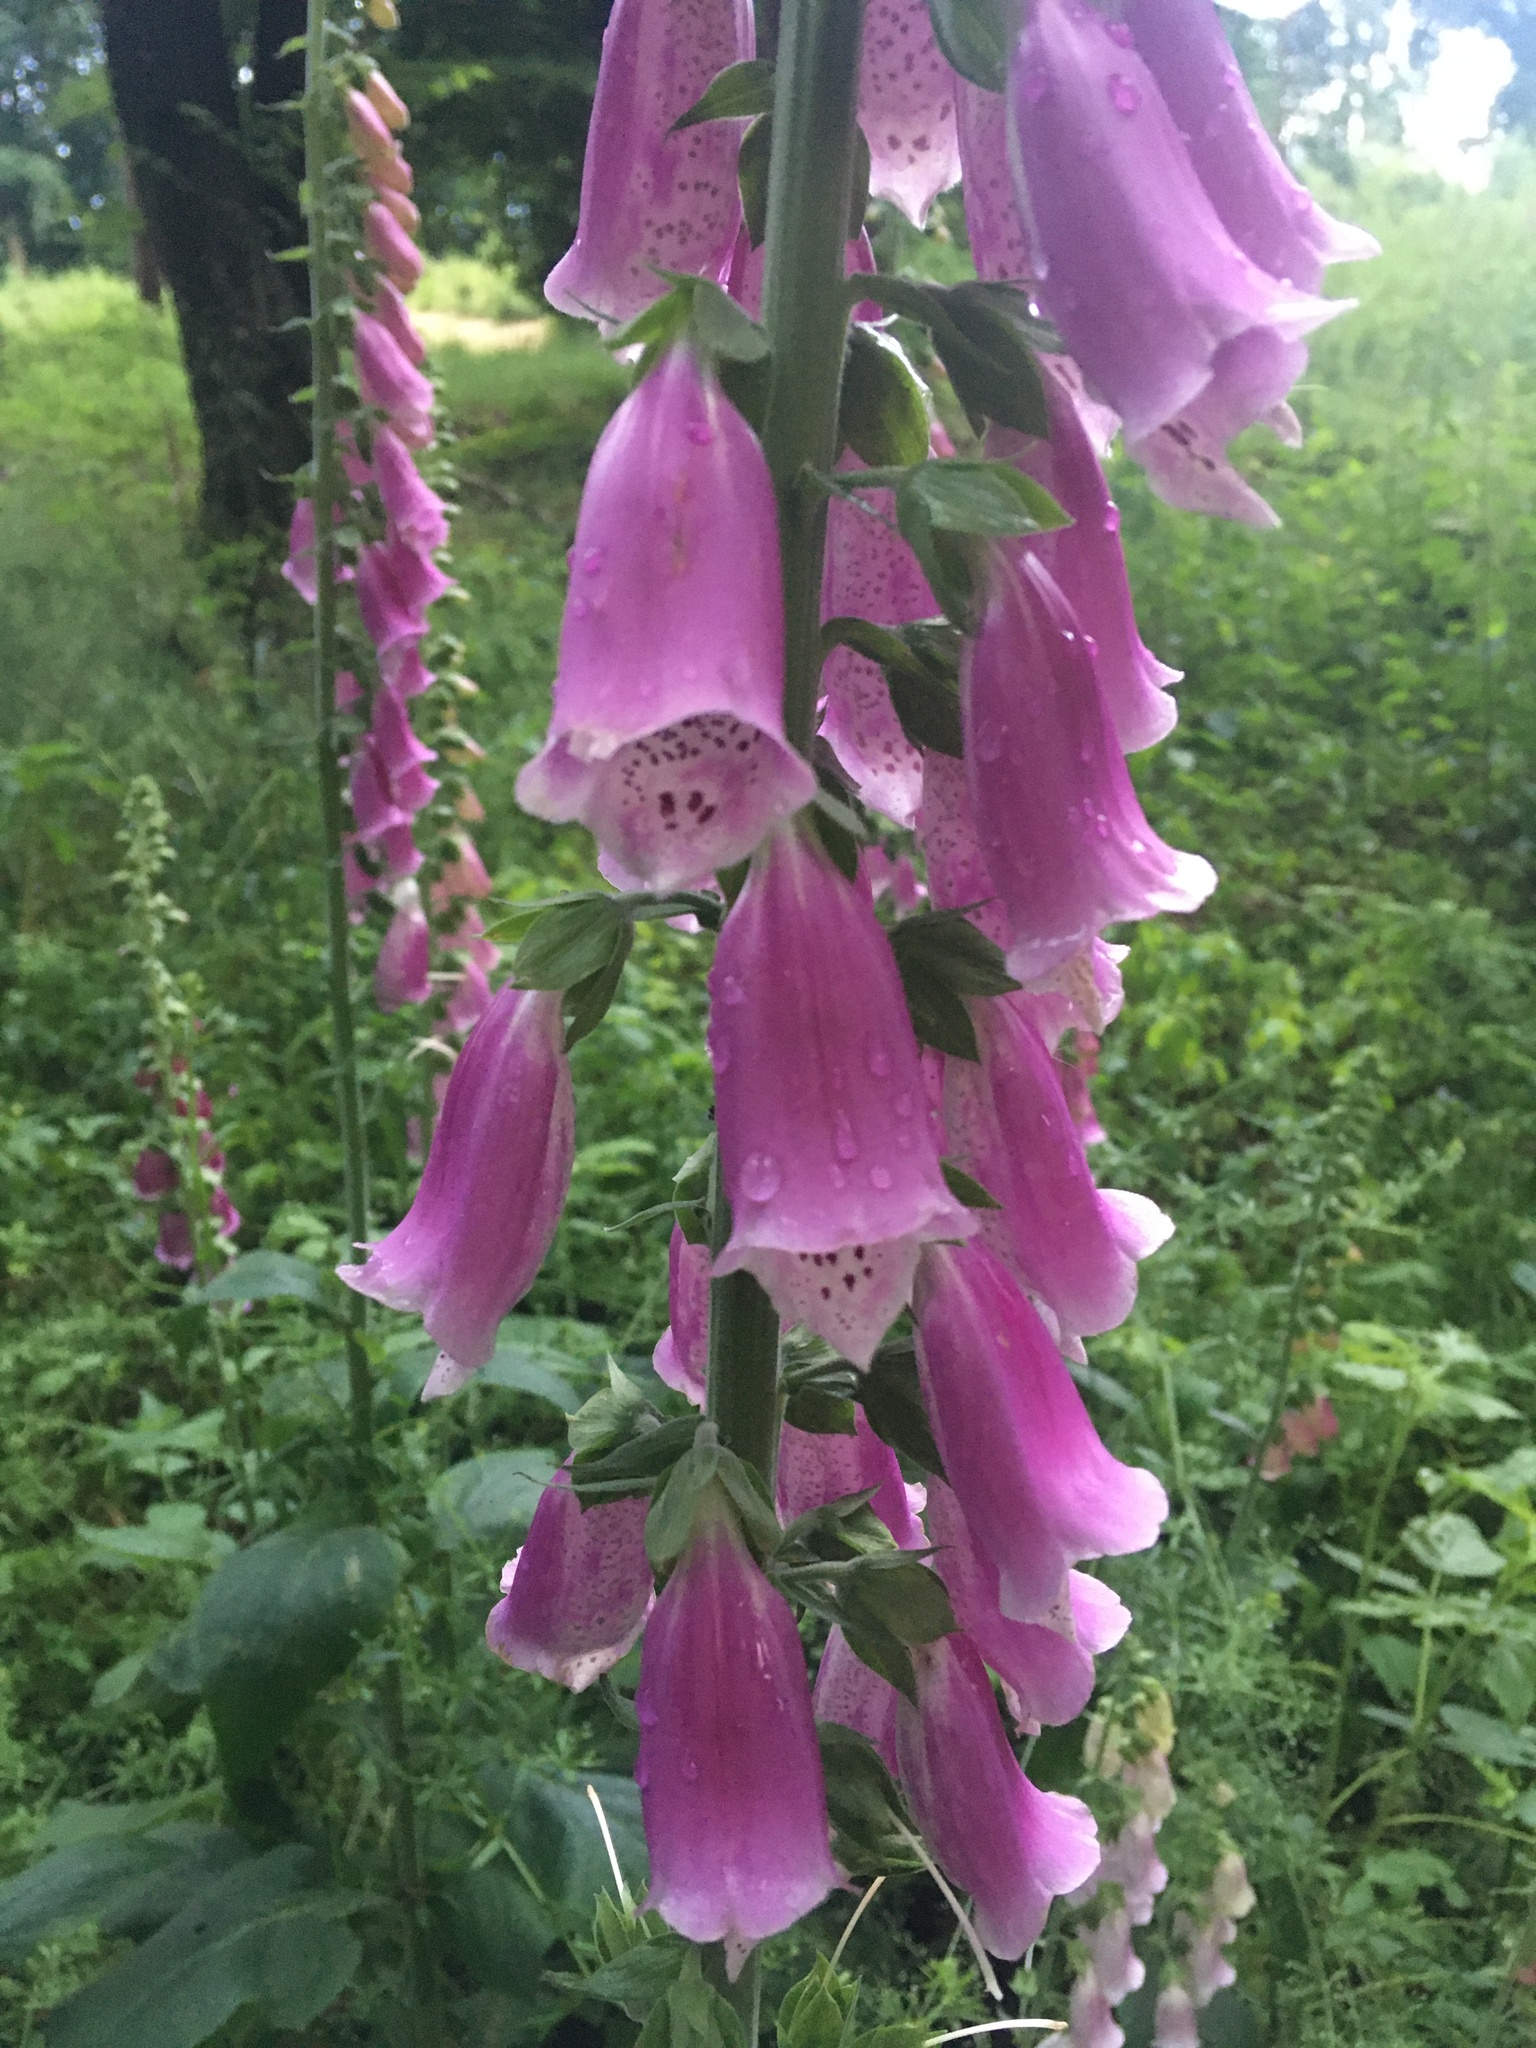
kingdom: Plantae
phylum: Tracheophyta
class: Magnoliopsida
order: Lamiales
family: Plantaginaceae
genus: Digitalis
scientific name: Digitalis purpurea
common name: Foxglove
